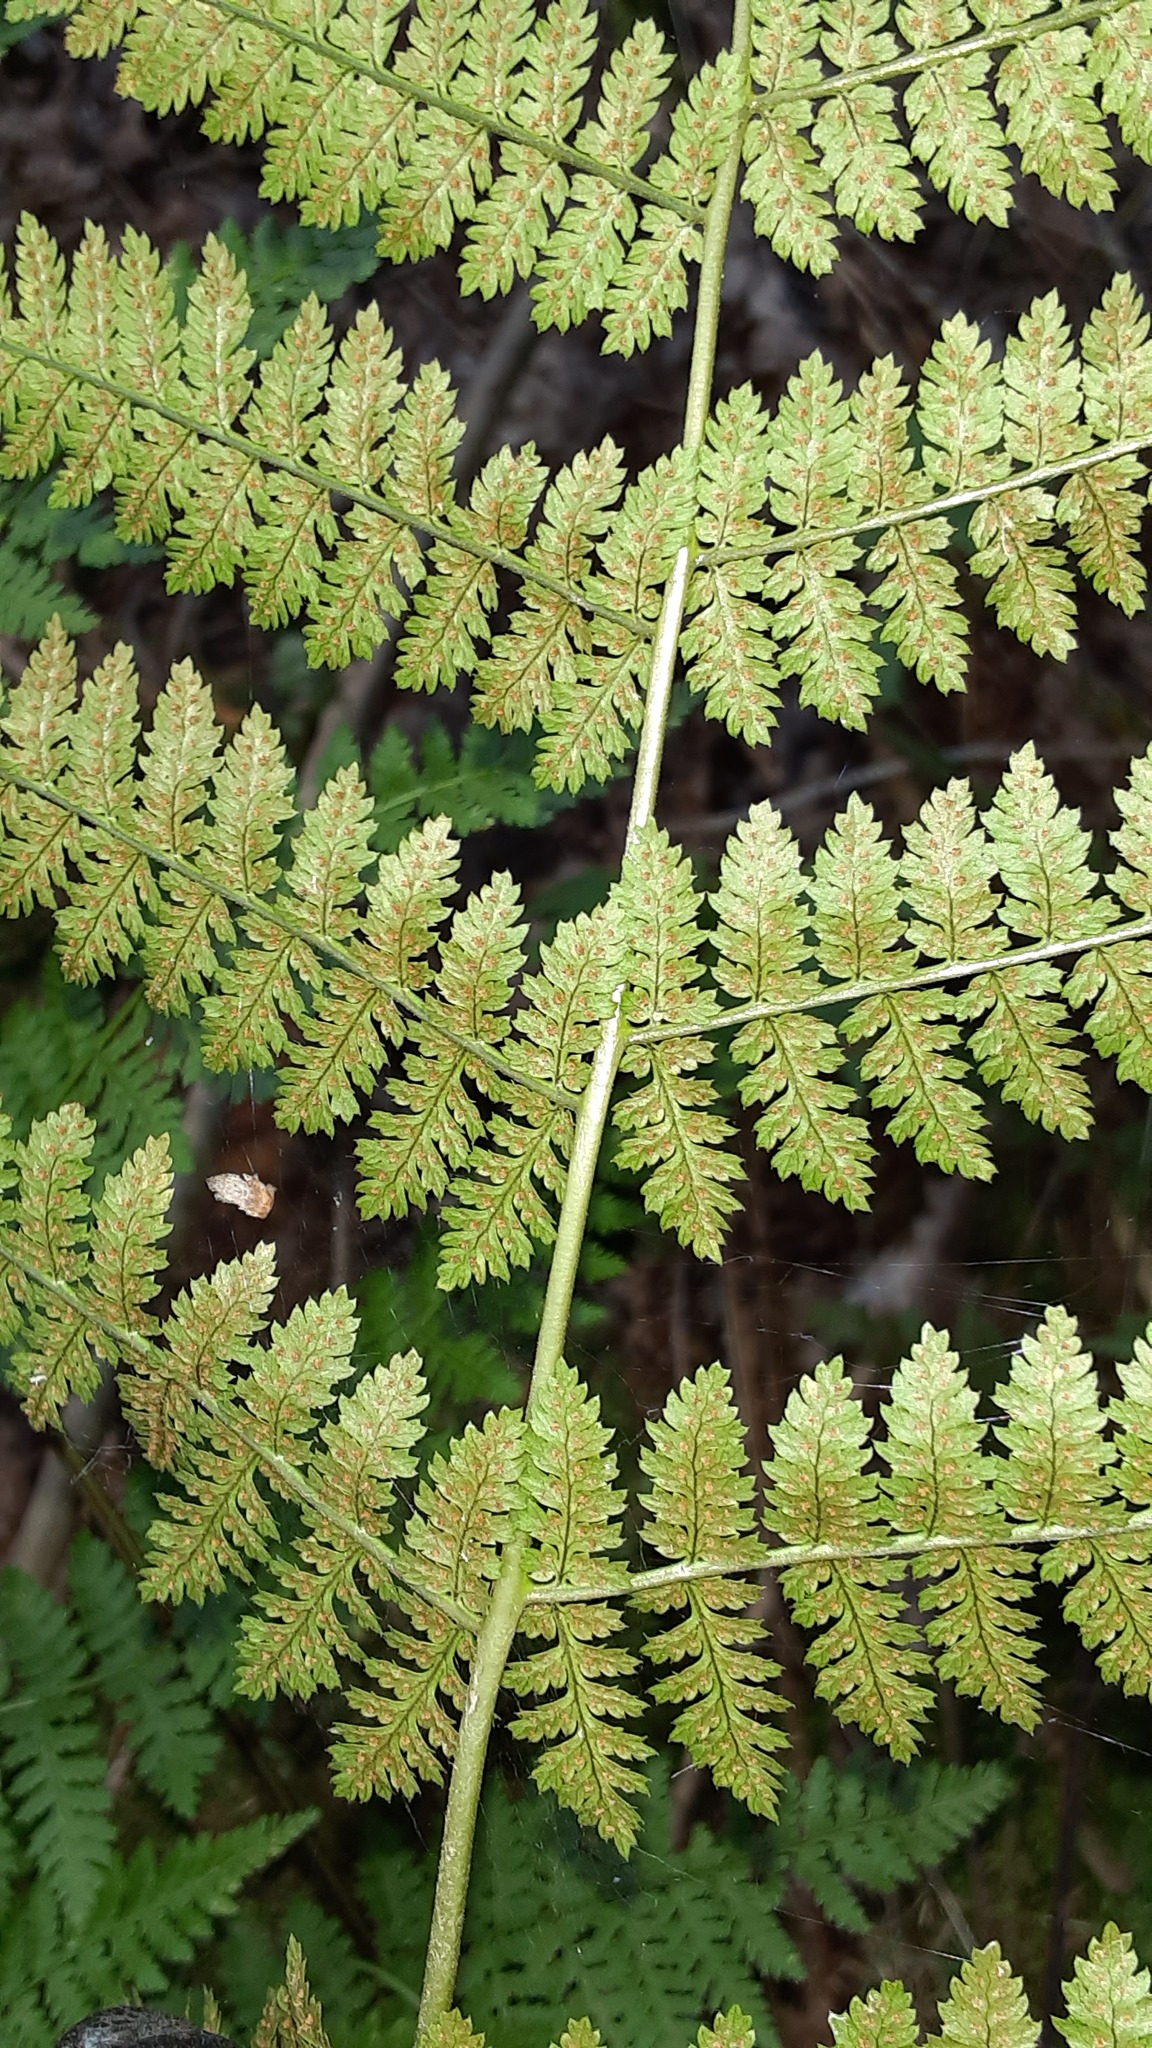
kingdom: Plantae
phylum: Tracheophyta
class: Polypodiopsida
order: Polypodiales
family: Dryopteridaceae
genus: Dryopteris
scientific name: Dryopteris intermedia
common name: Evergreen wood fern
